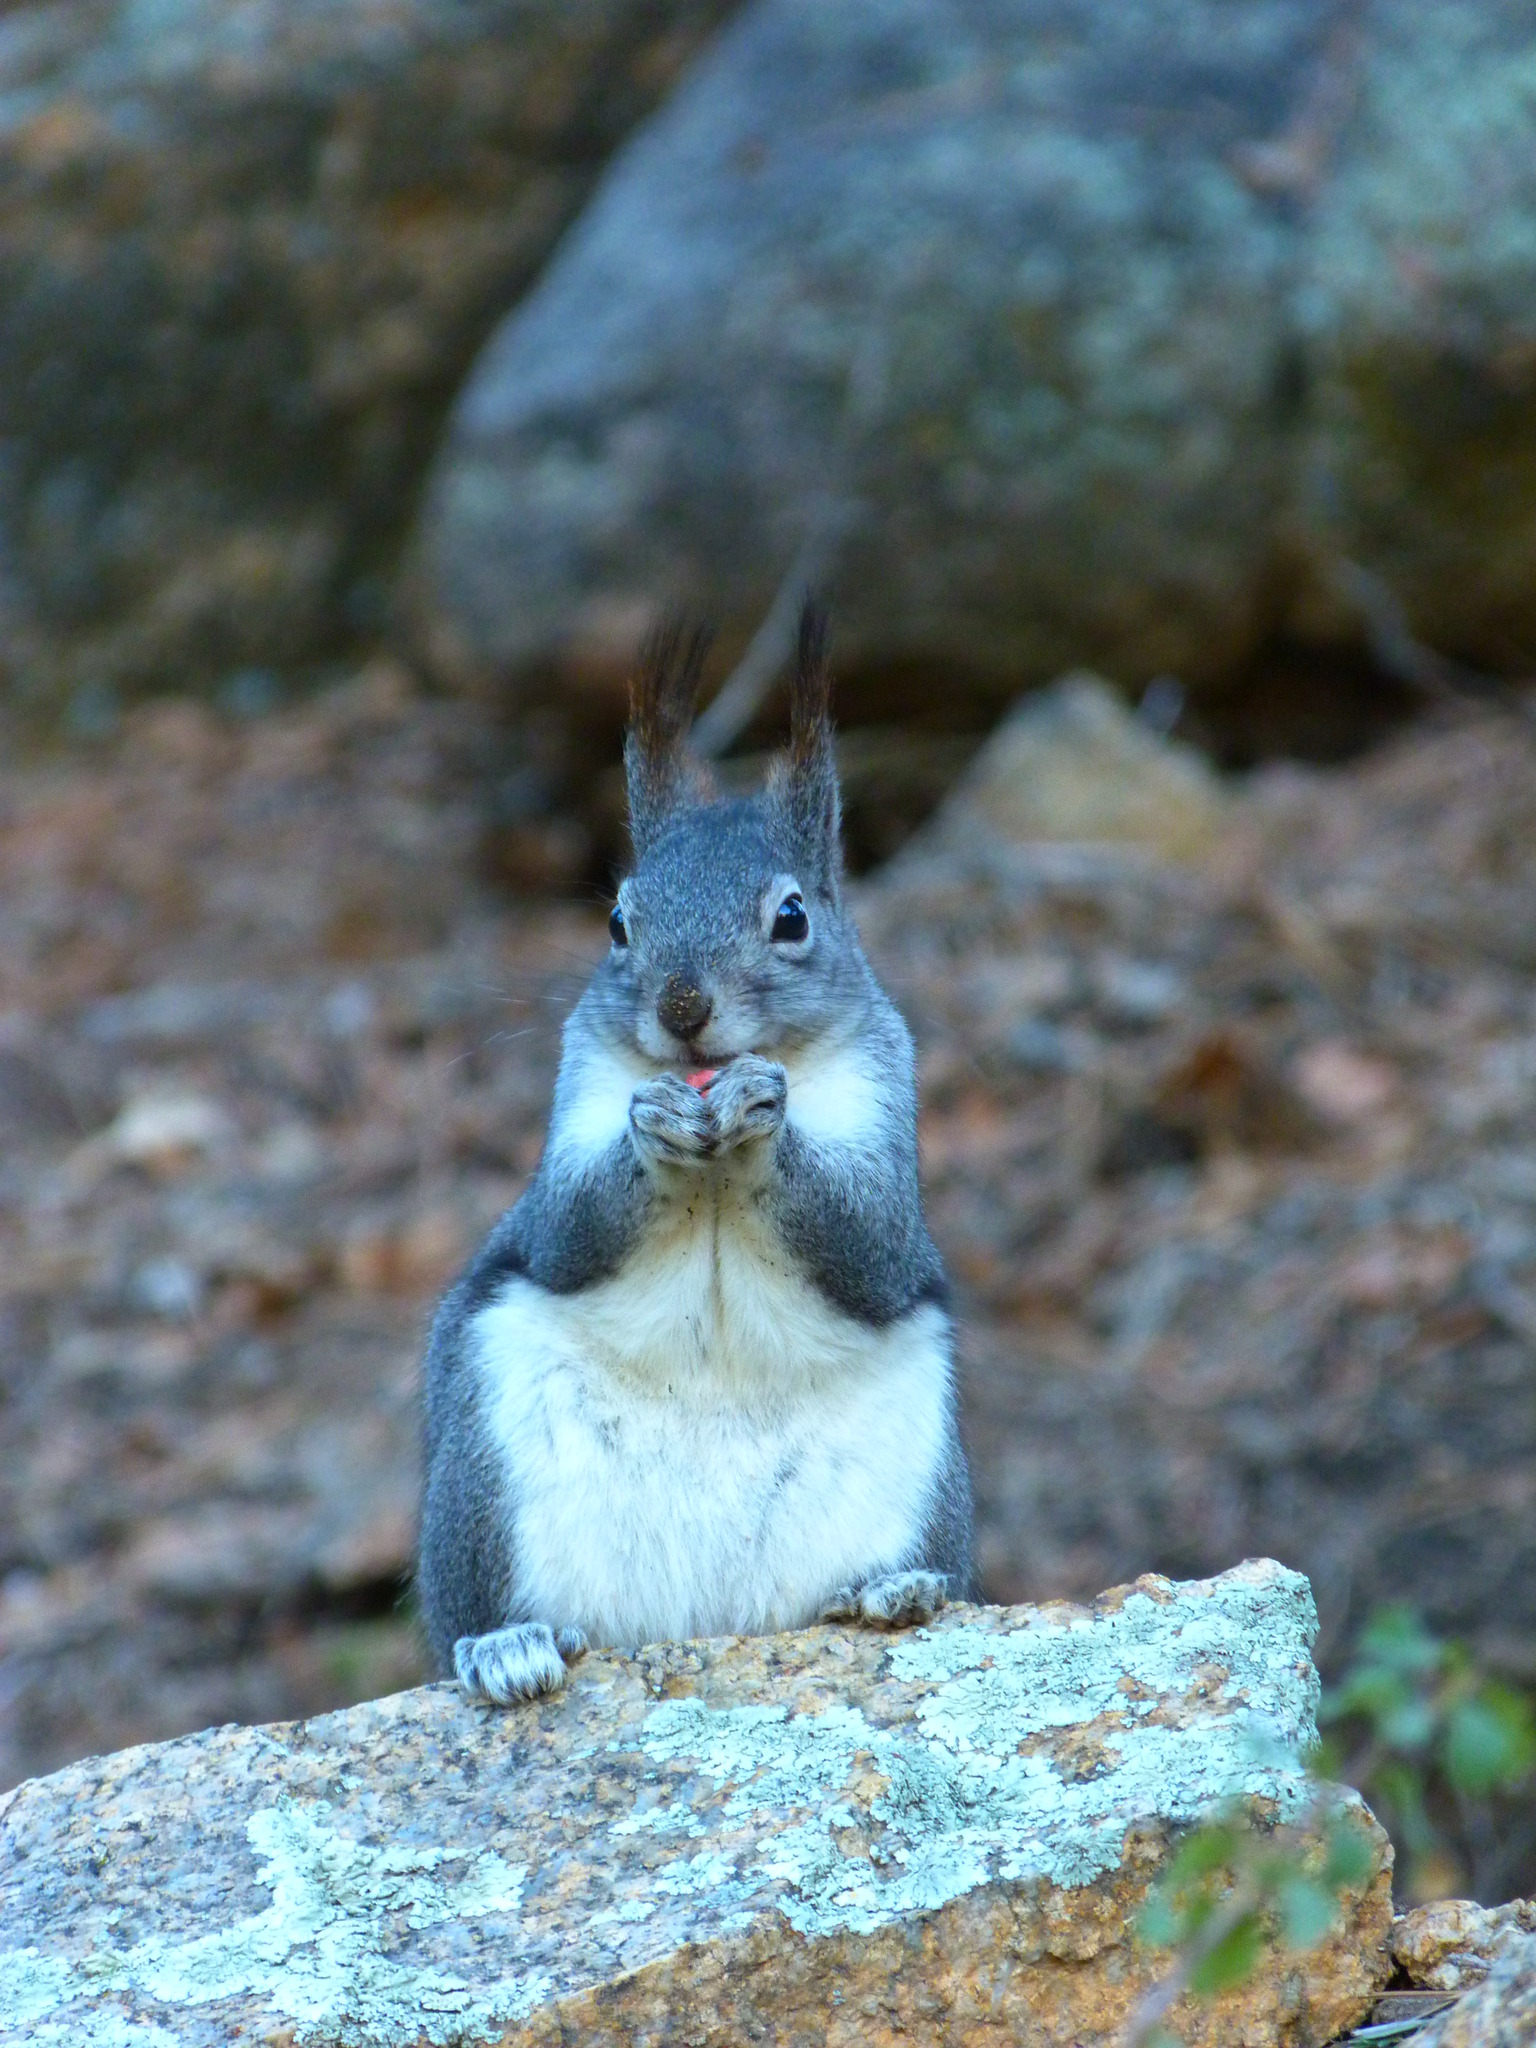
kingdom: Animalia
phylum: Chordata
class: Mammalia
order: Rodentia
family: Sciuridae
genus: Sciurus
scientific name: Sciurus aberti
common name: Abert's squirrel
